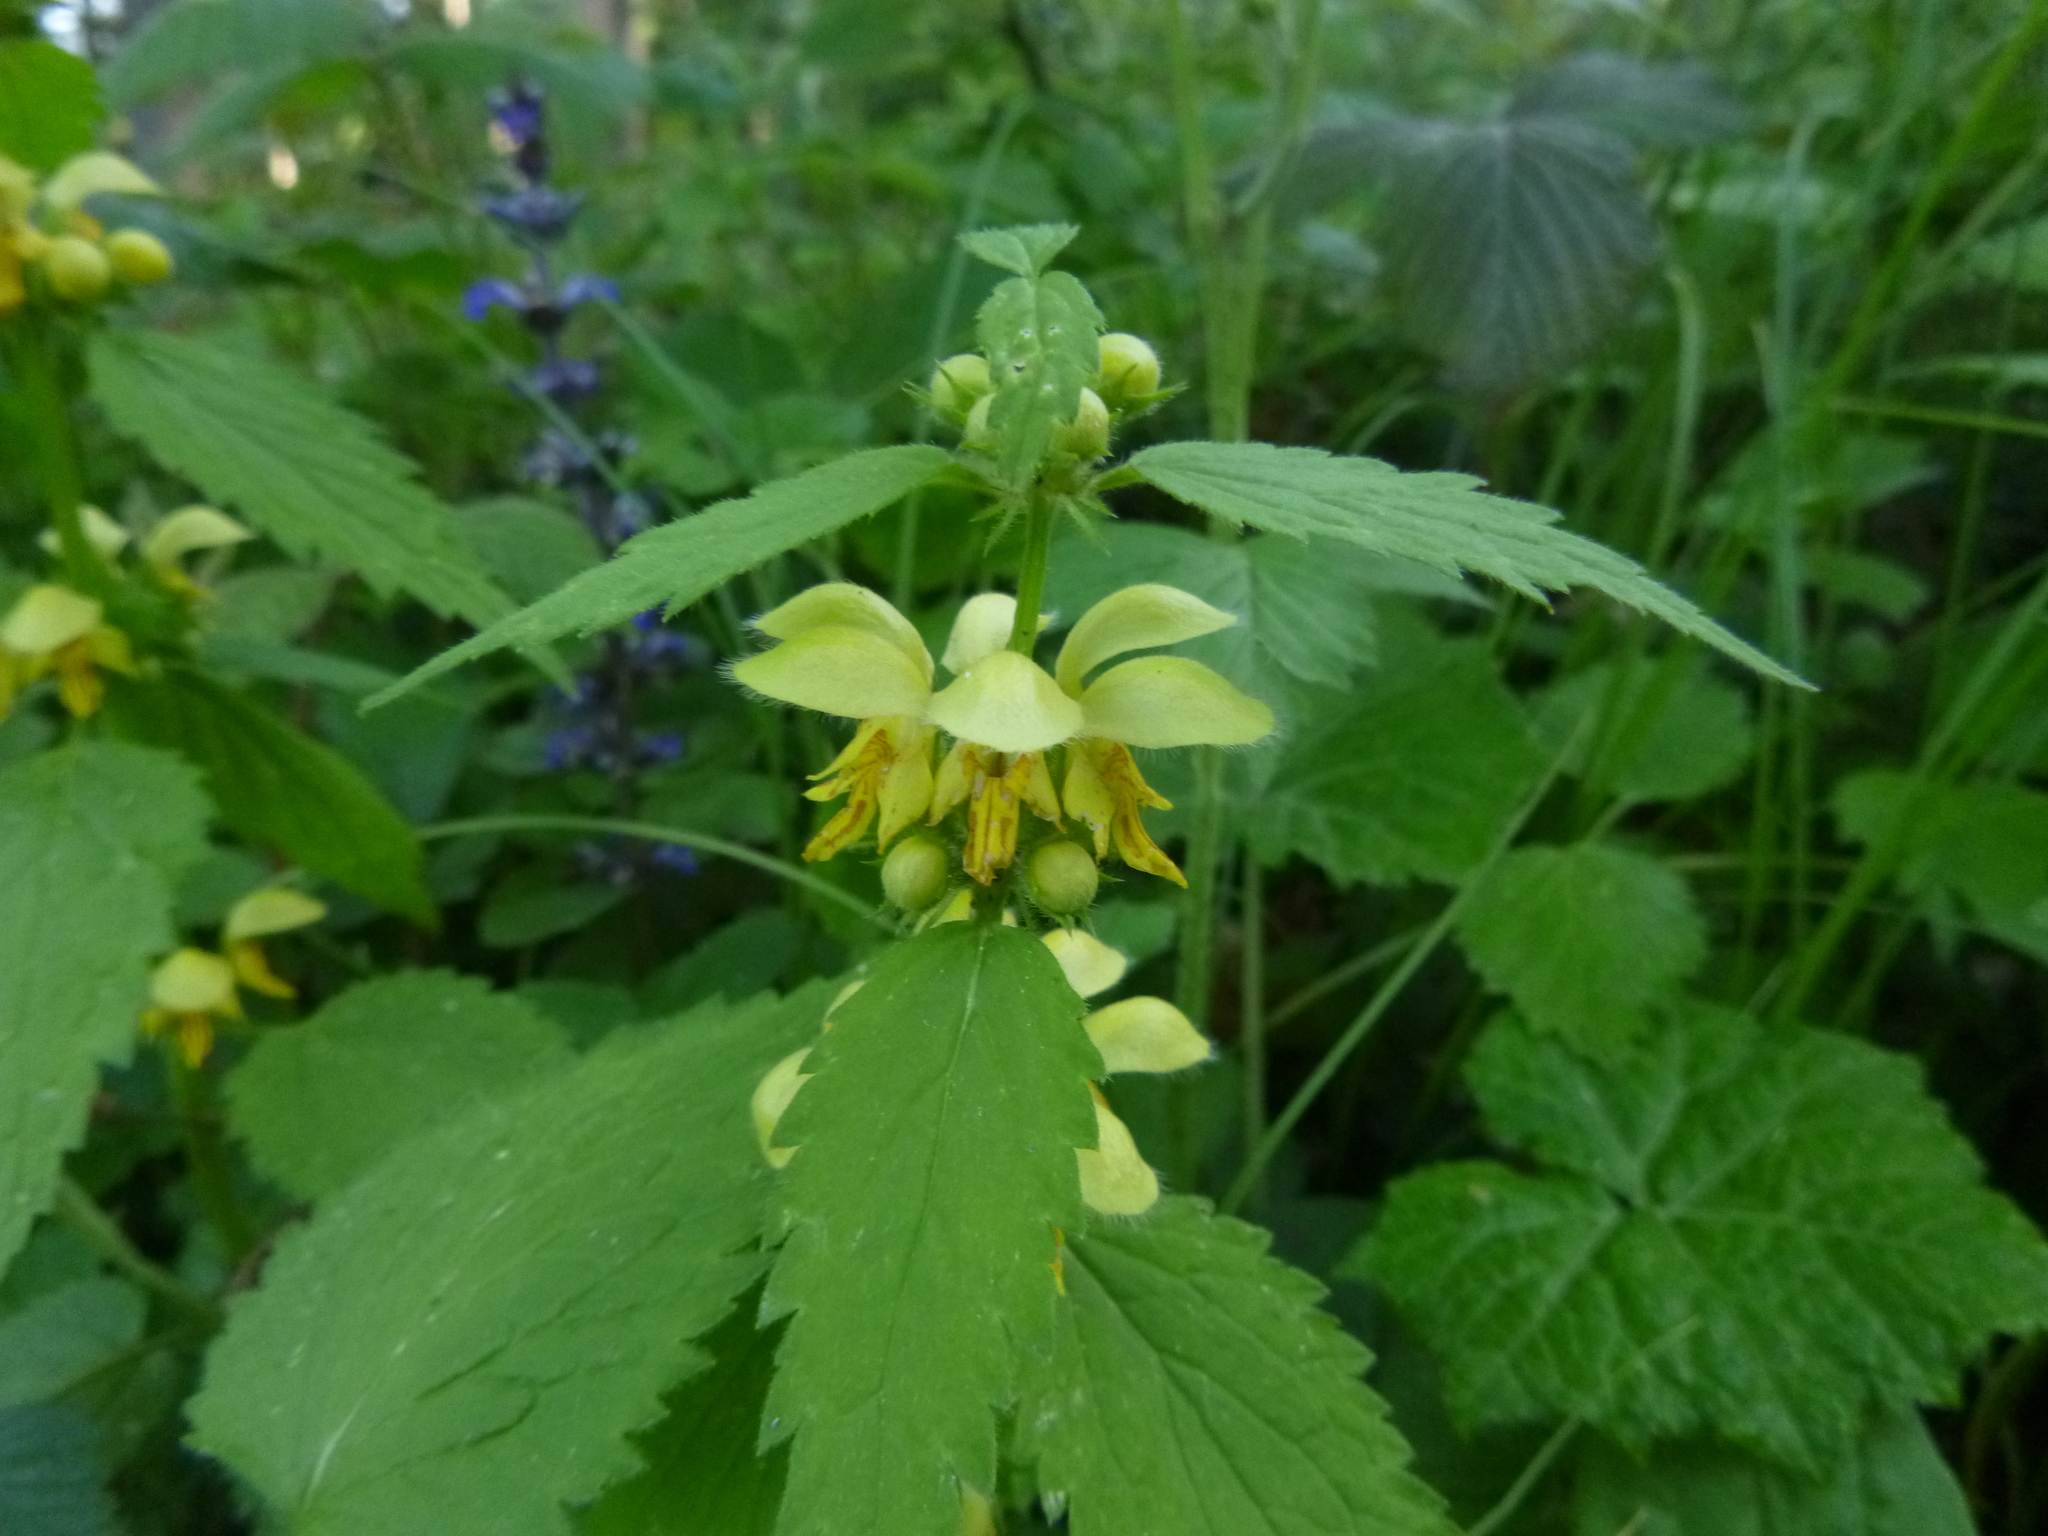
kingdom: Plantae
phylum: Tracheophyta
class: Magnoliopsida
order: Lamiales
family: Lamiaceae
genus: Lamium
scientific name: Lamium galeobdolon
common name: Yellow archangel
